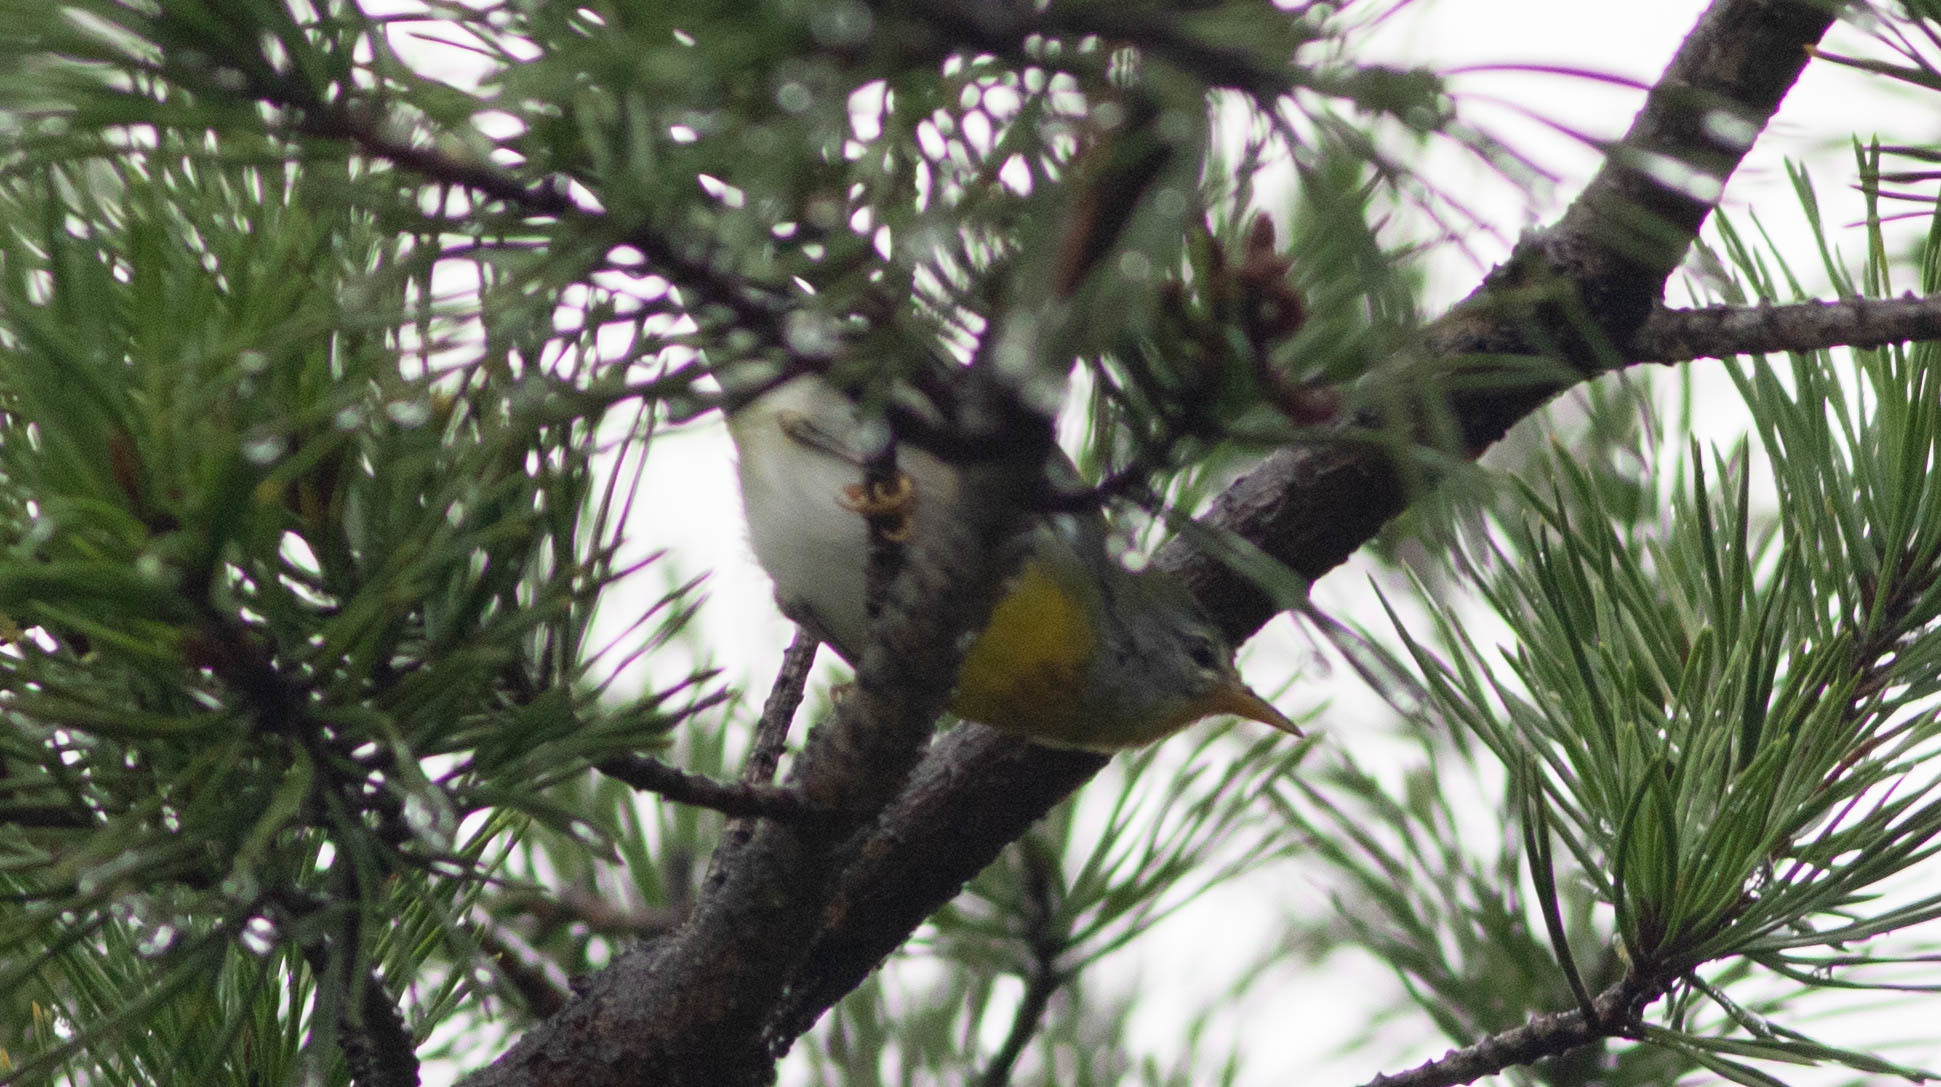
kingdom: Animalia
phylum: Chordata
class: Aves
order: Passeriformes
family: Parulidae
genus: Setophaga
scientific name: Setophaga americana
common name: Northern parula
